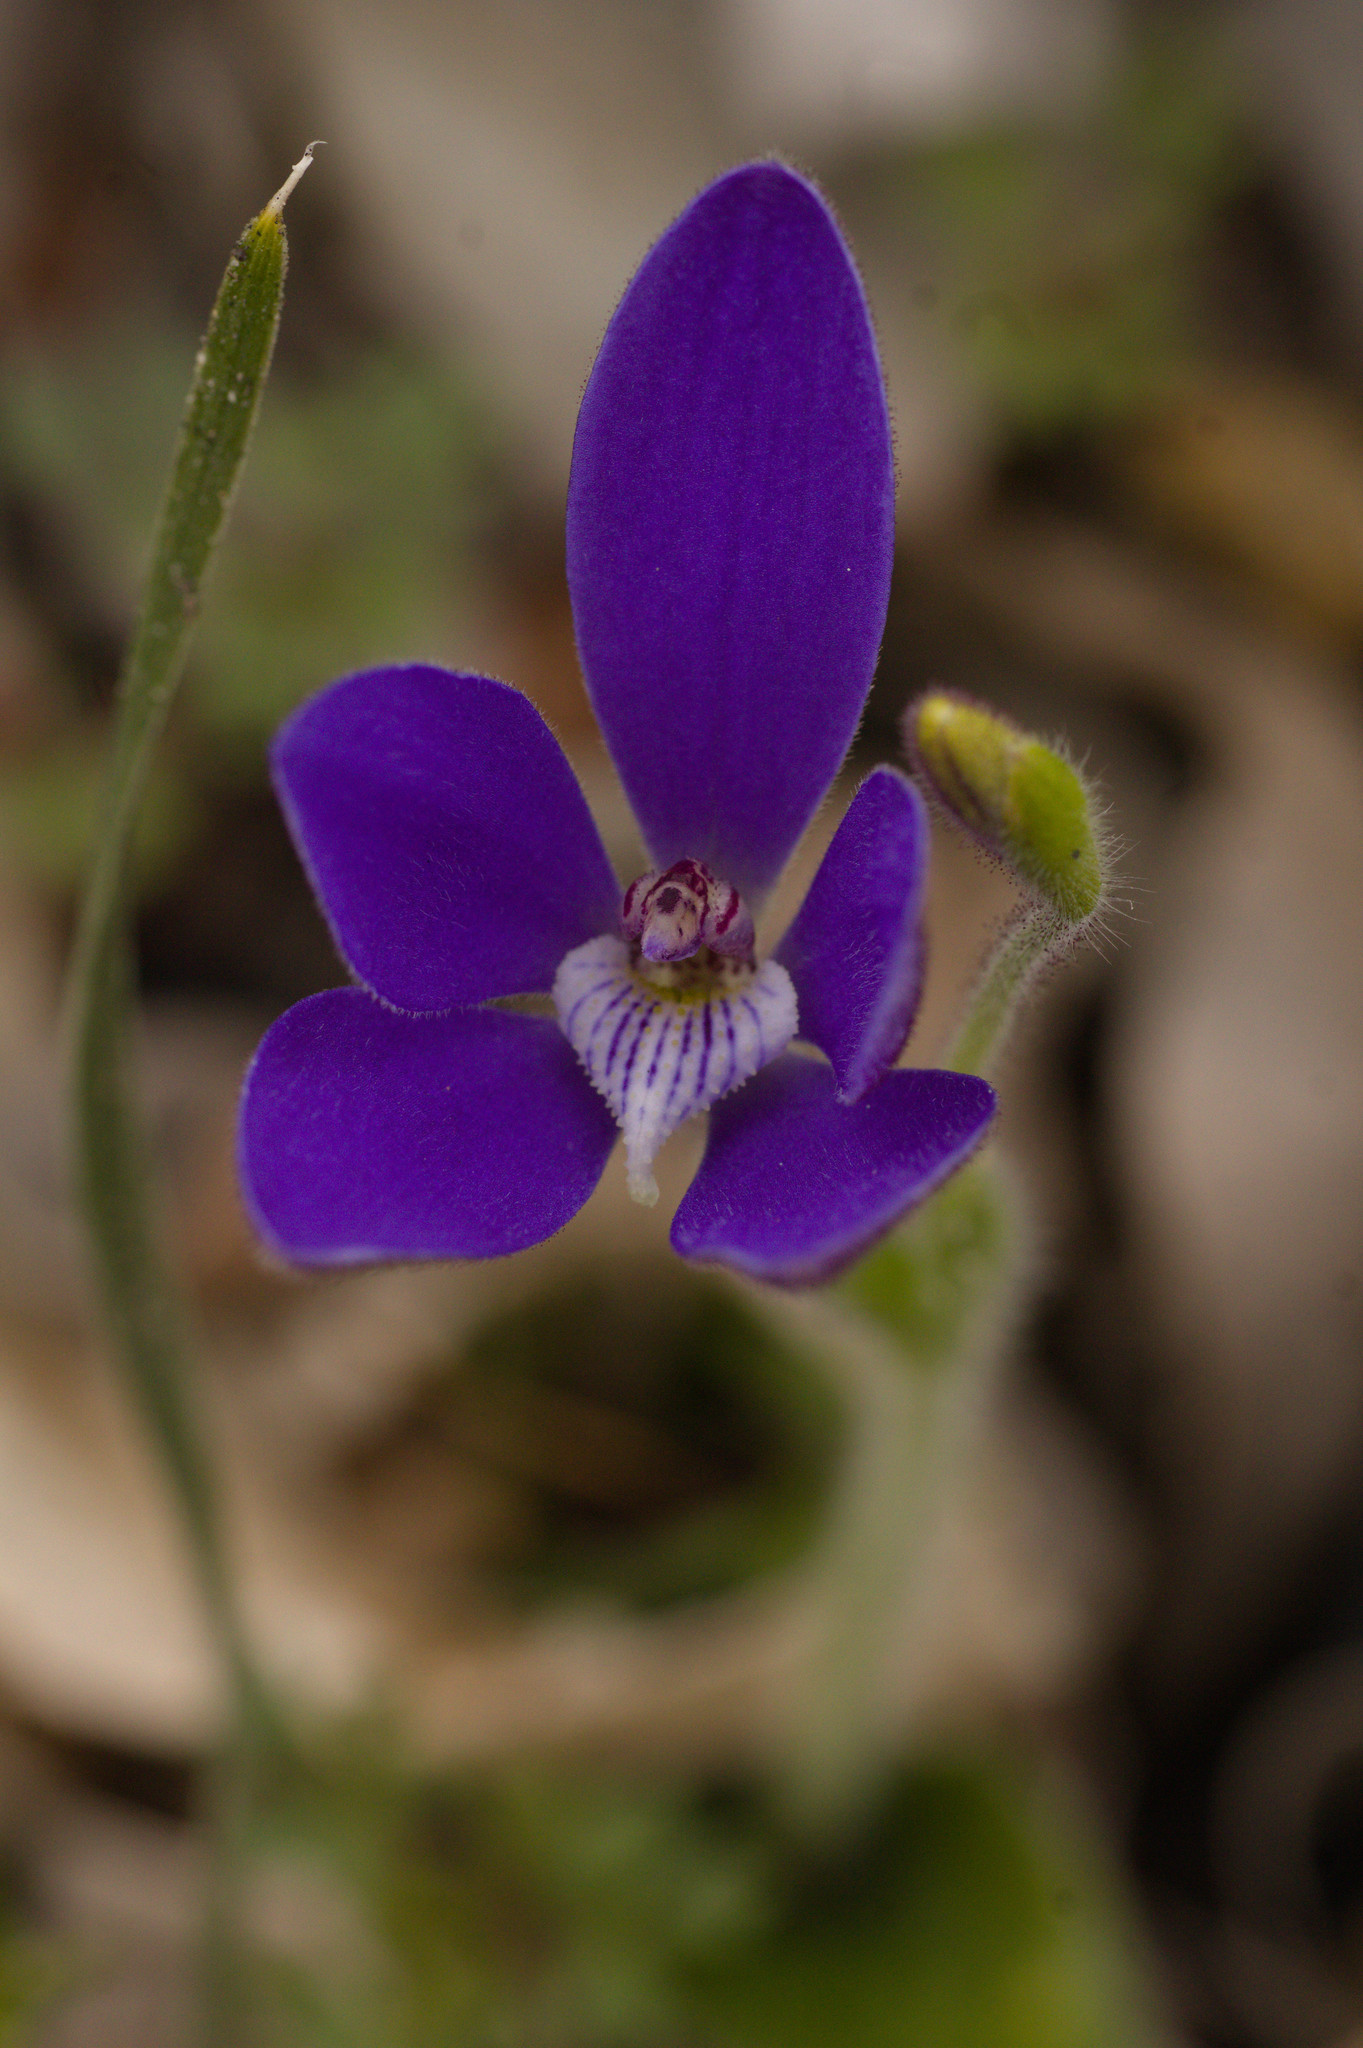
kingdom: Plantae
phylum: Tracheophyta
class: Liliopsida
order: Asparagales
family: Orchidaceae
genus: Caladenia
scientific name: Caladenia gemmata
